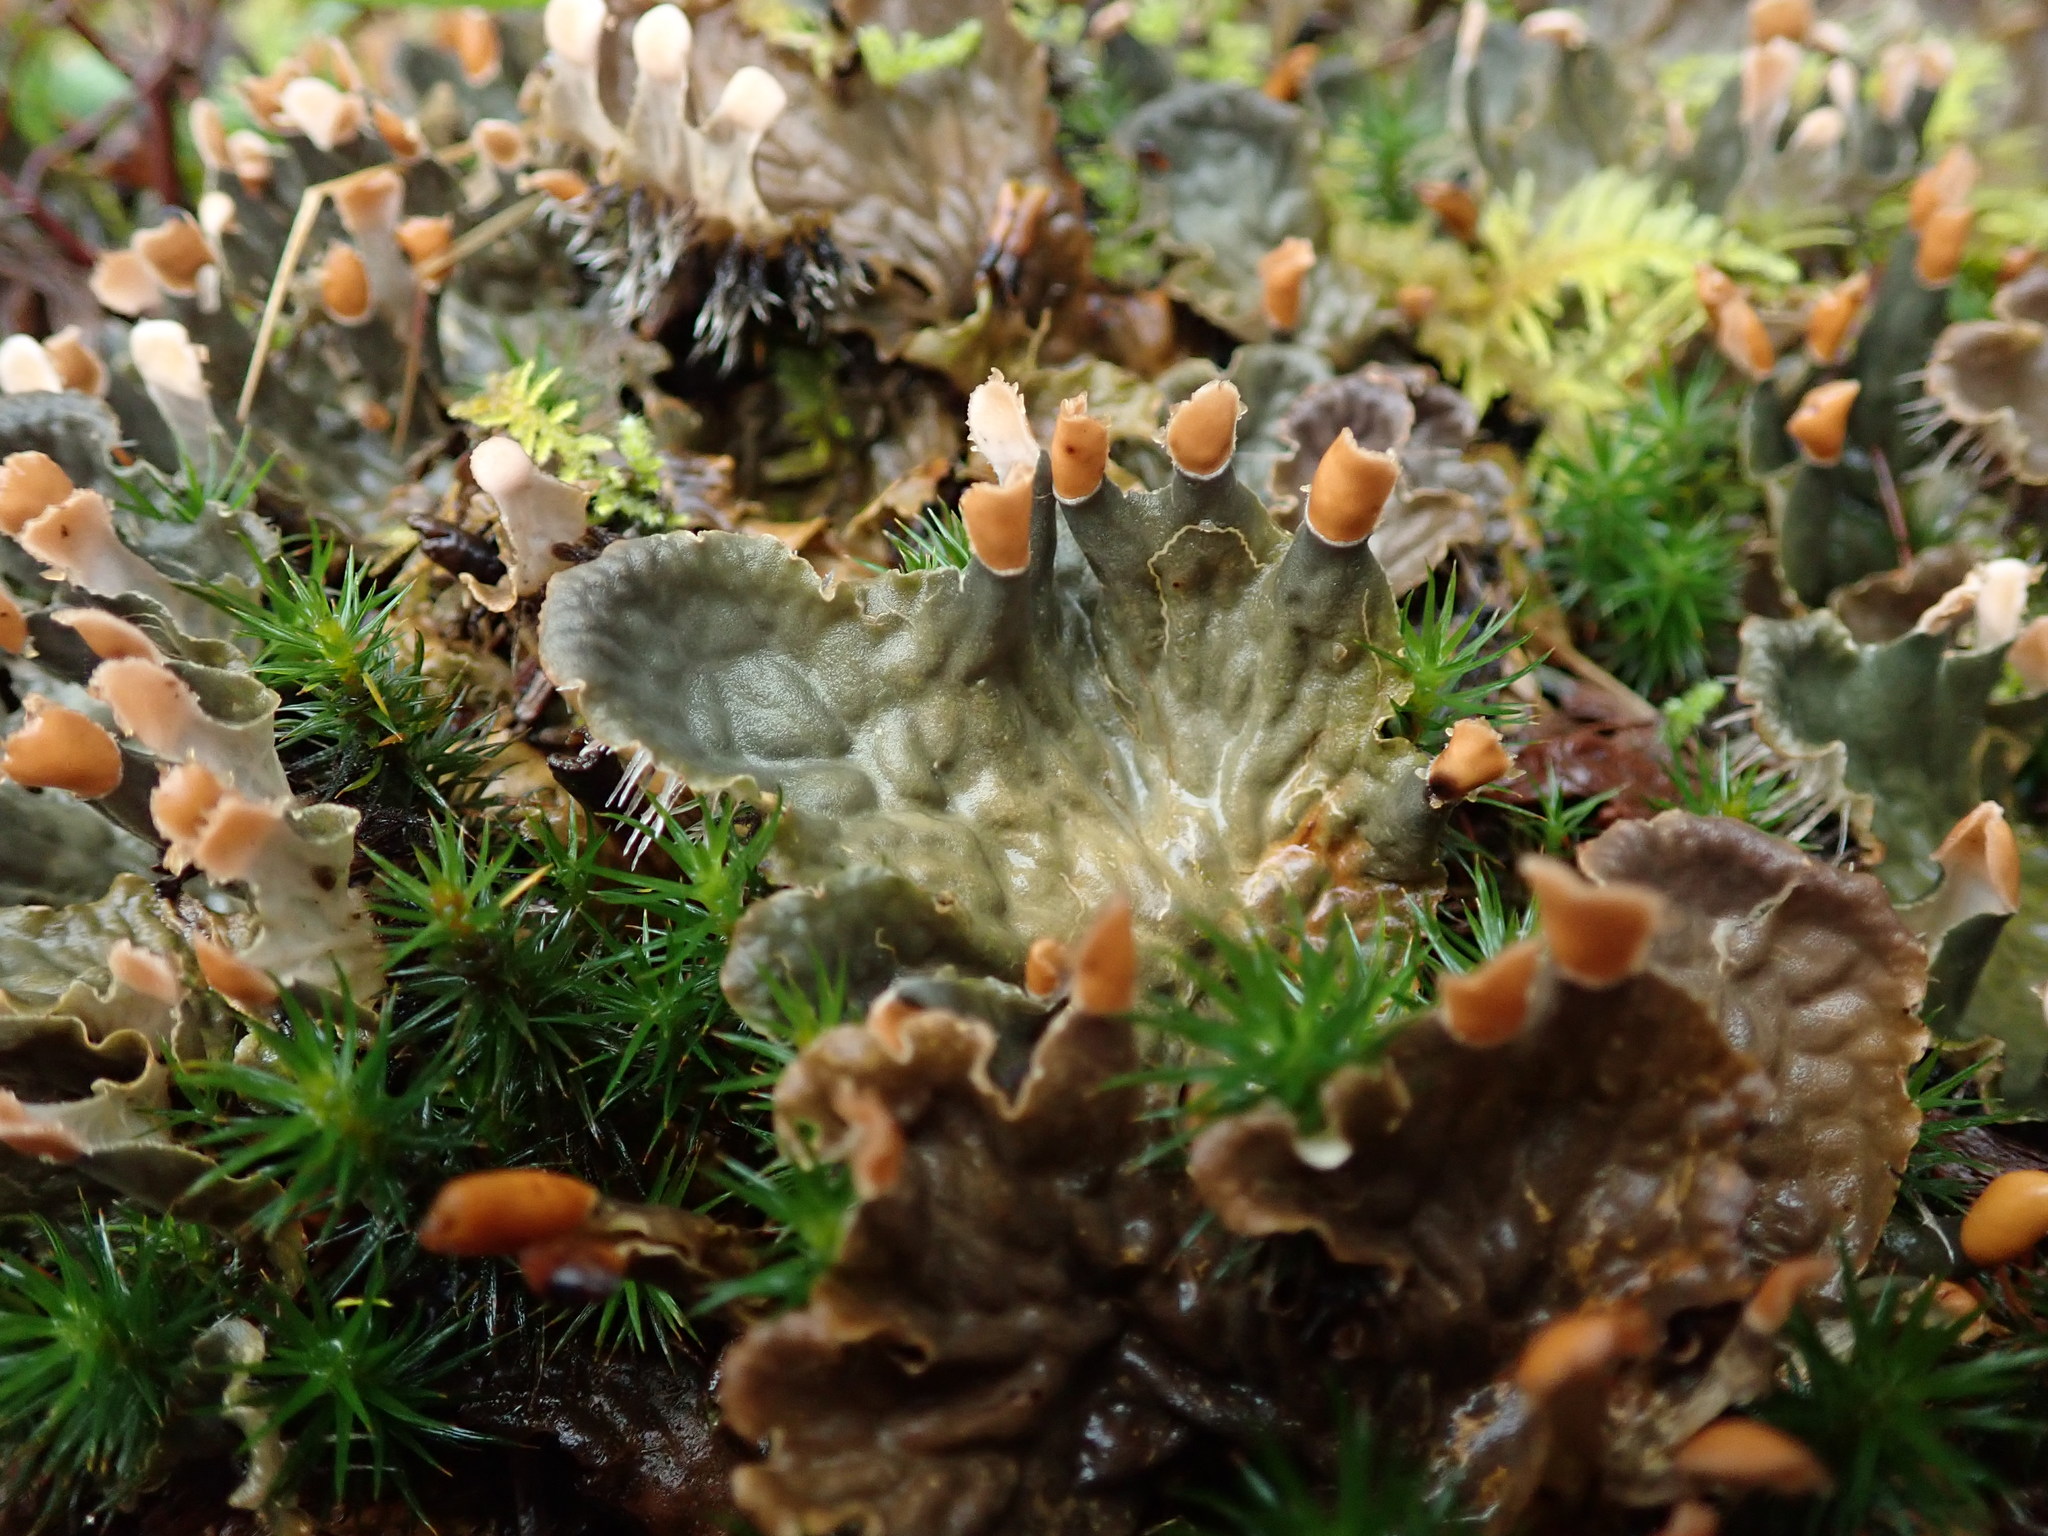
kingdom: Fungi
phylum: Ascomycota
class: Lecanoromycetes
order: Peltigerales
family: Peltigeraceae
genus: Peltigera
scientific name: Peltigera membranacea
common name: Membranous pelt lichen
